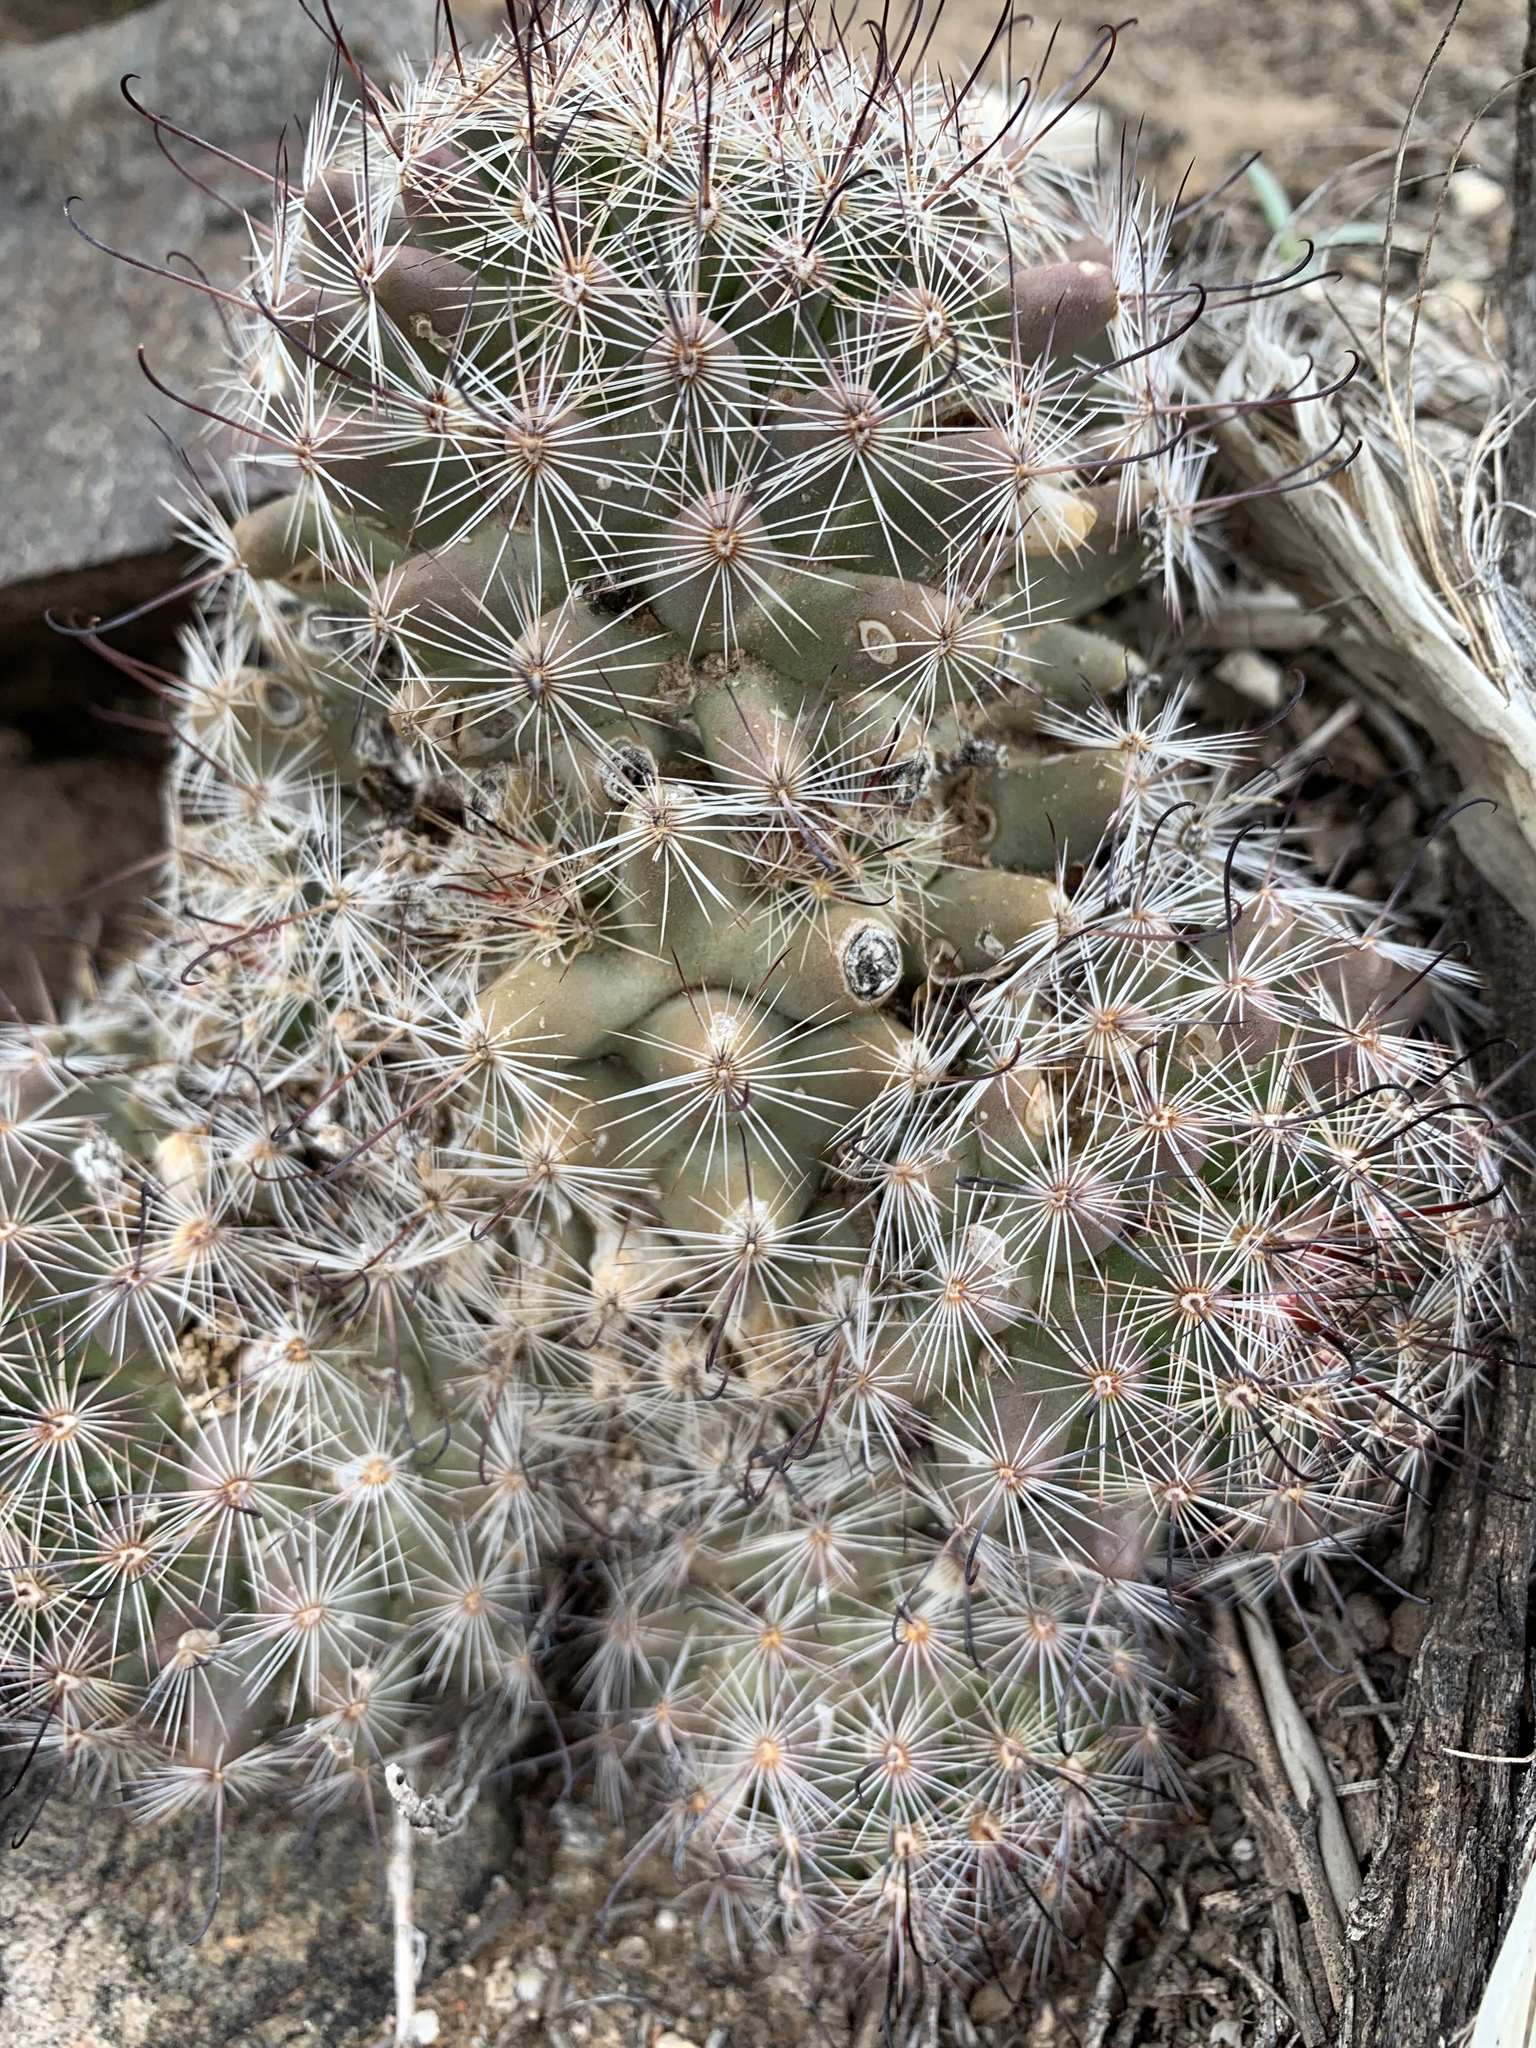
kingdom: Plantae
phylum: Tracheophyta
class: Magnoliopsida
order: Caryophyllales
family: Cactaceae
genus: Cochemiea
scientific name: Cochemiea grahamii
